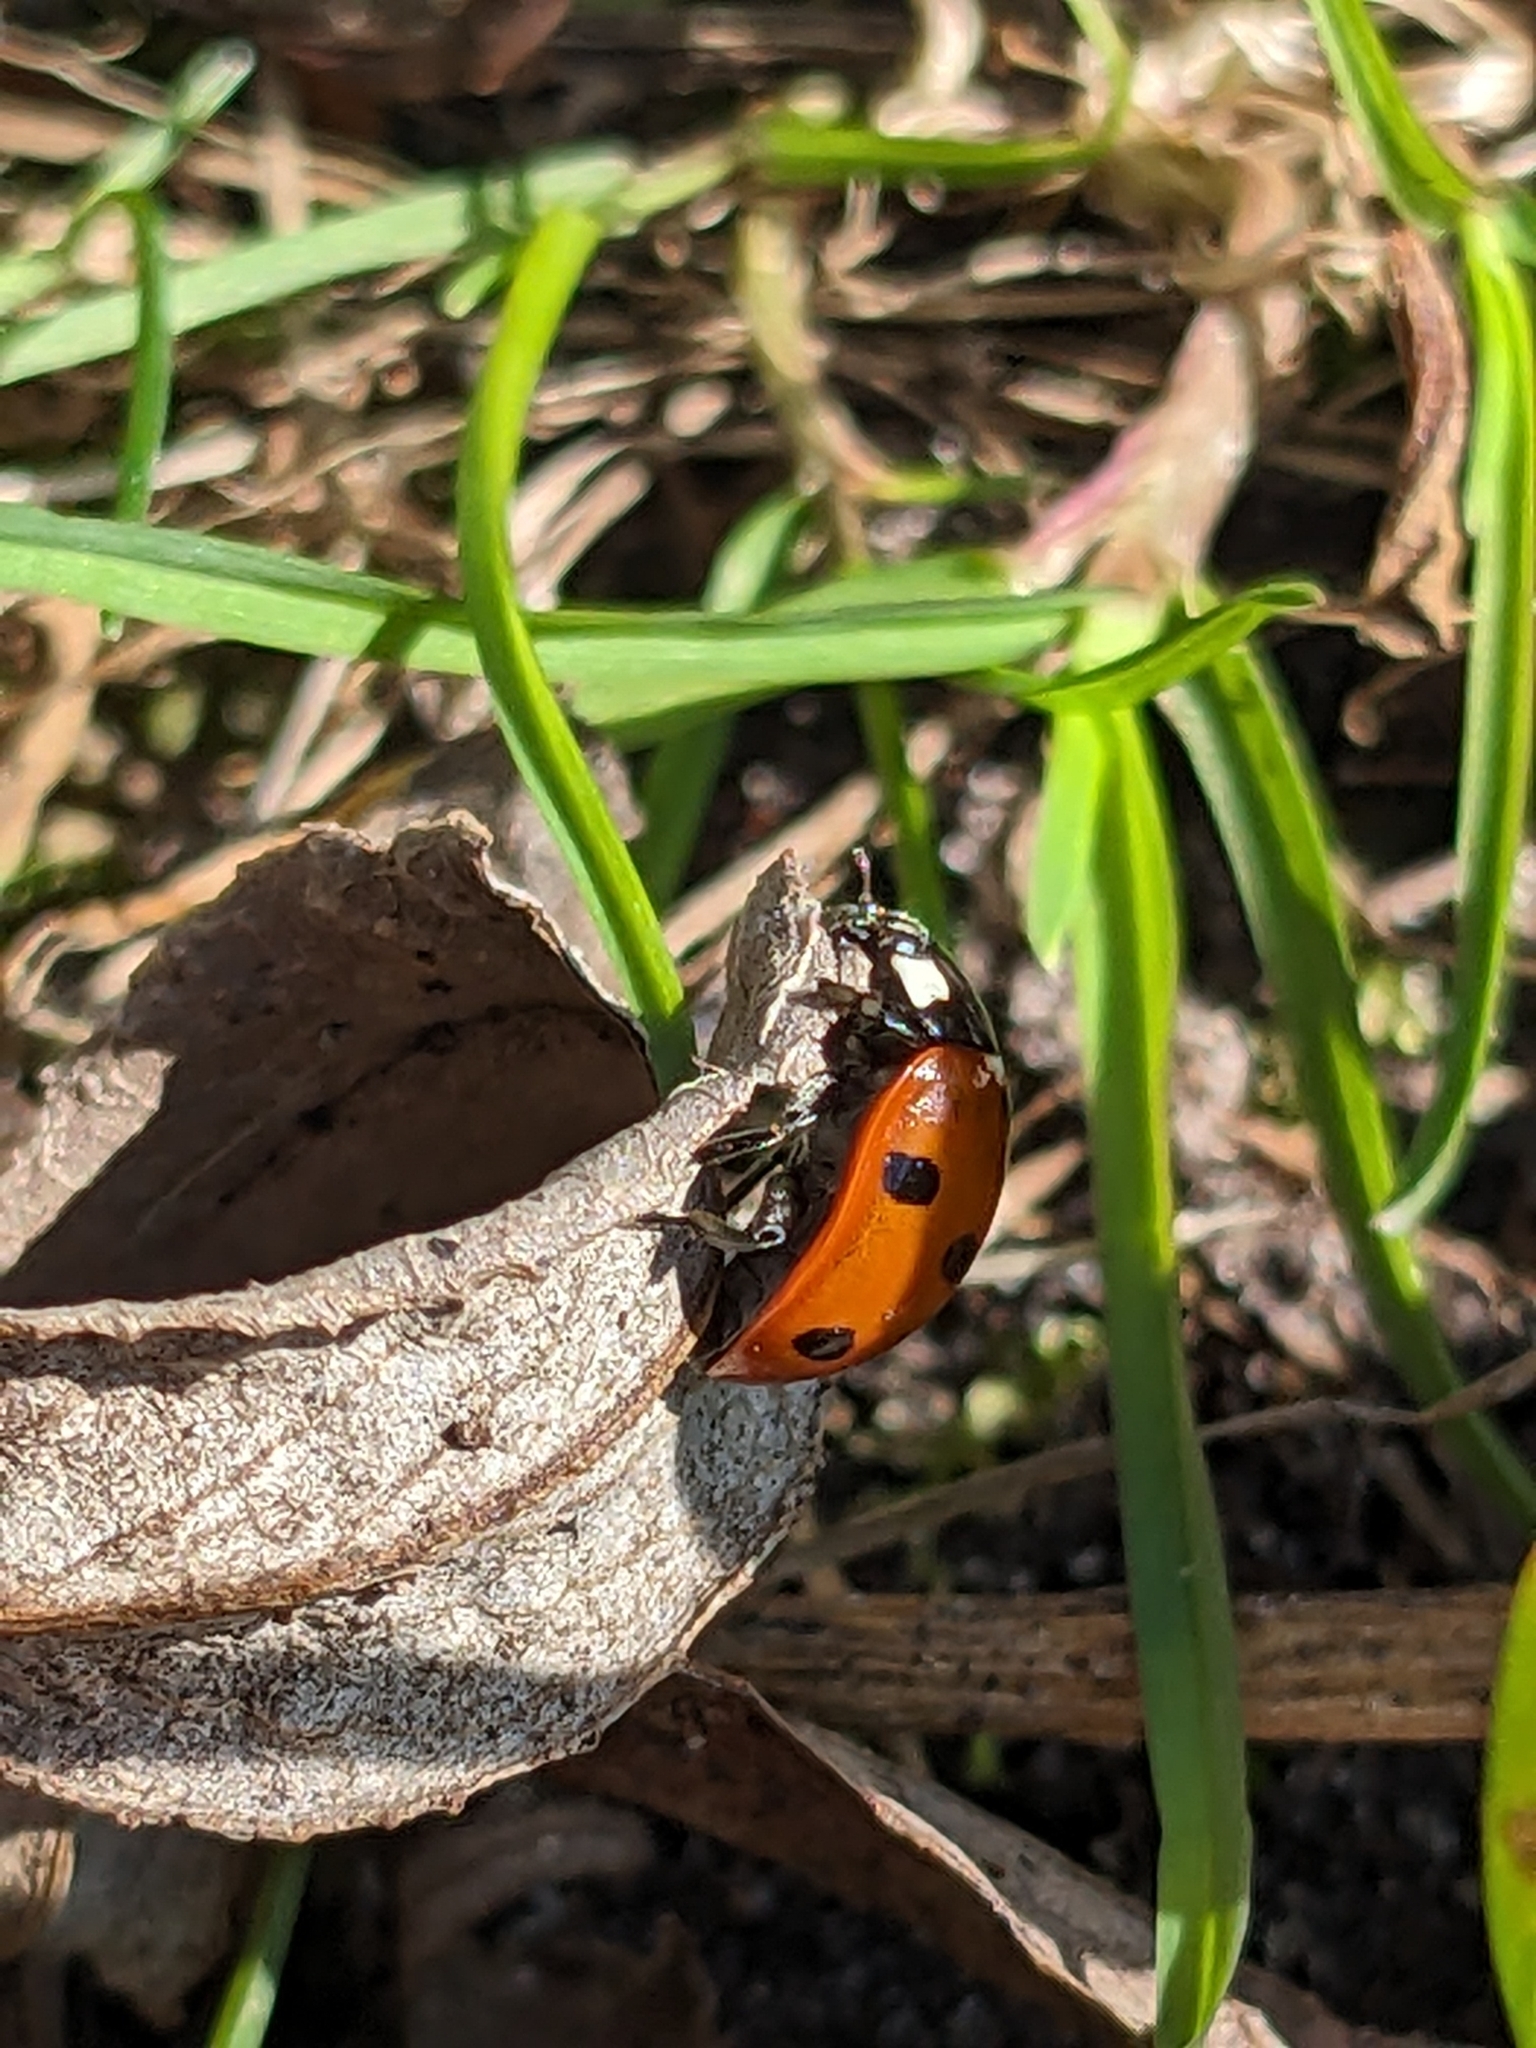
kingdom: Animalia
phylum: Arthropoda
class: Insecta
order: Coleoptera
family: Coccinellidae
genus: Coccinella
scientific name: Coccinella septempunctata
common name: Sevenspotted lady beetle
